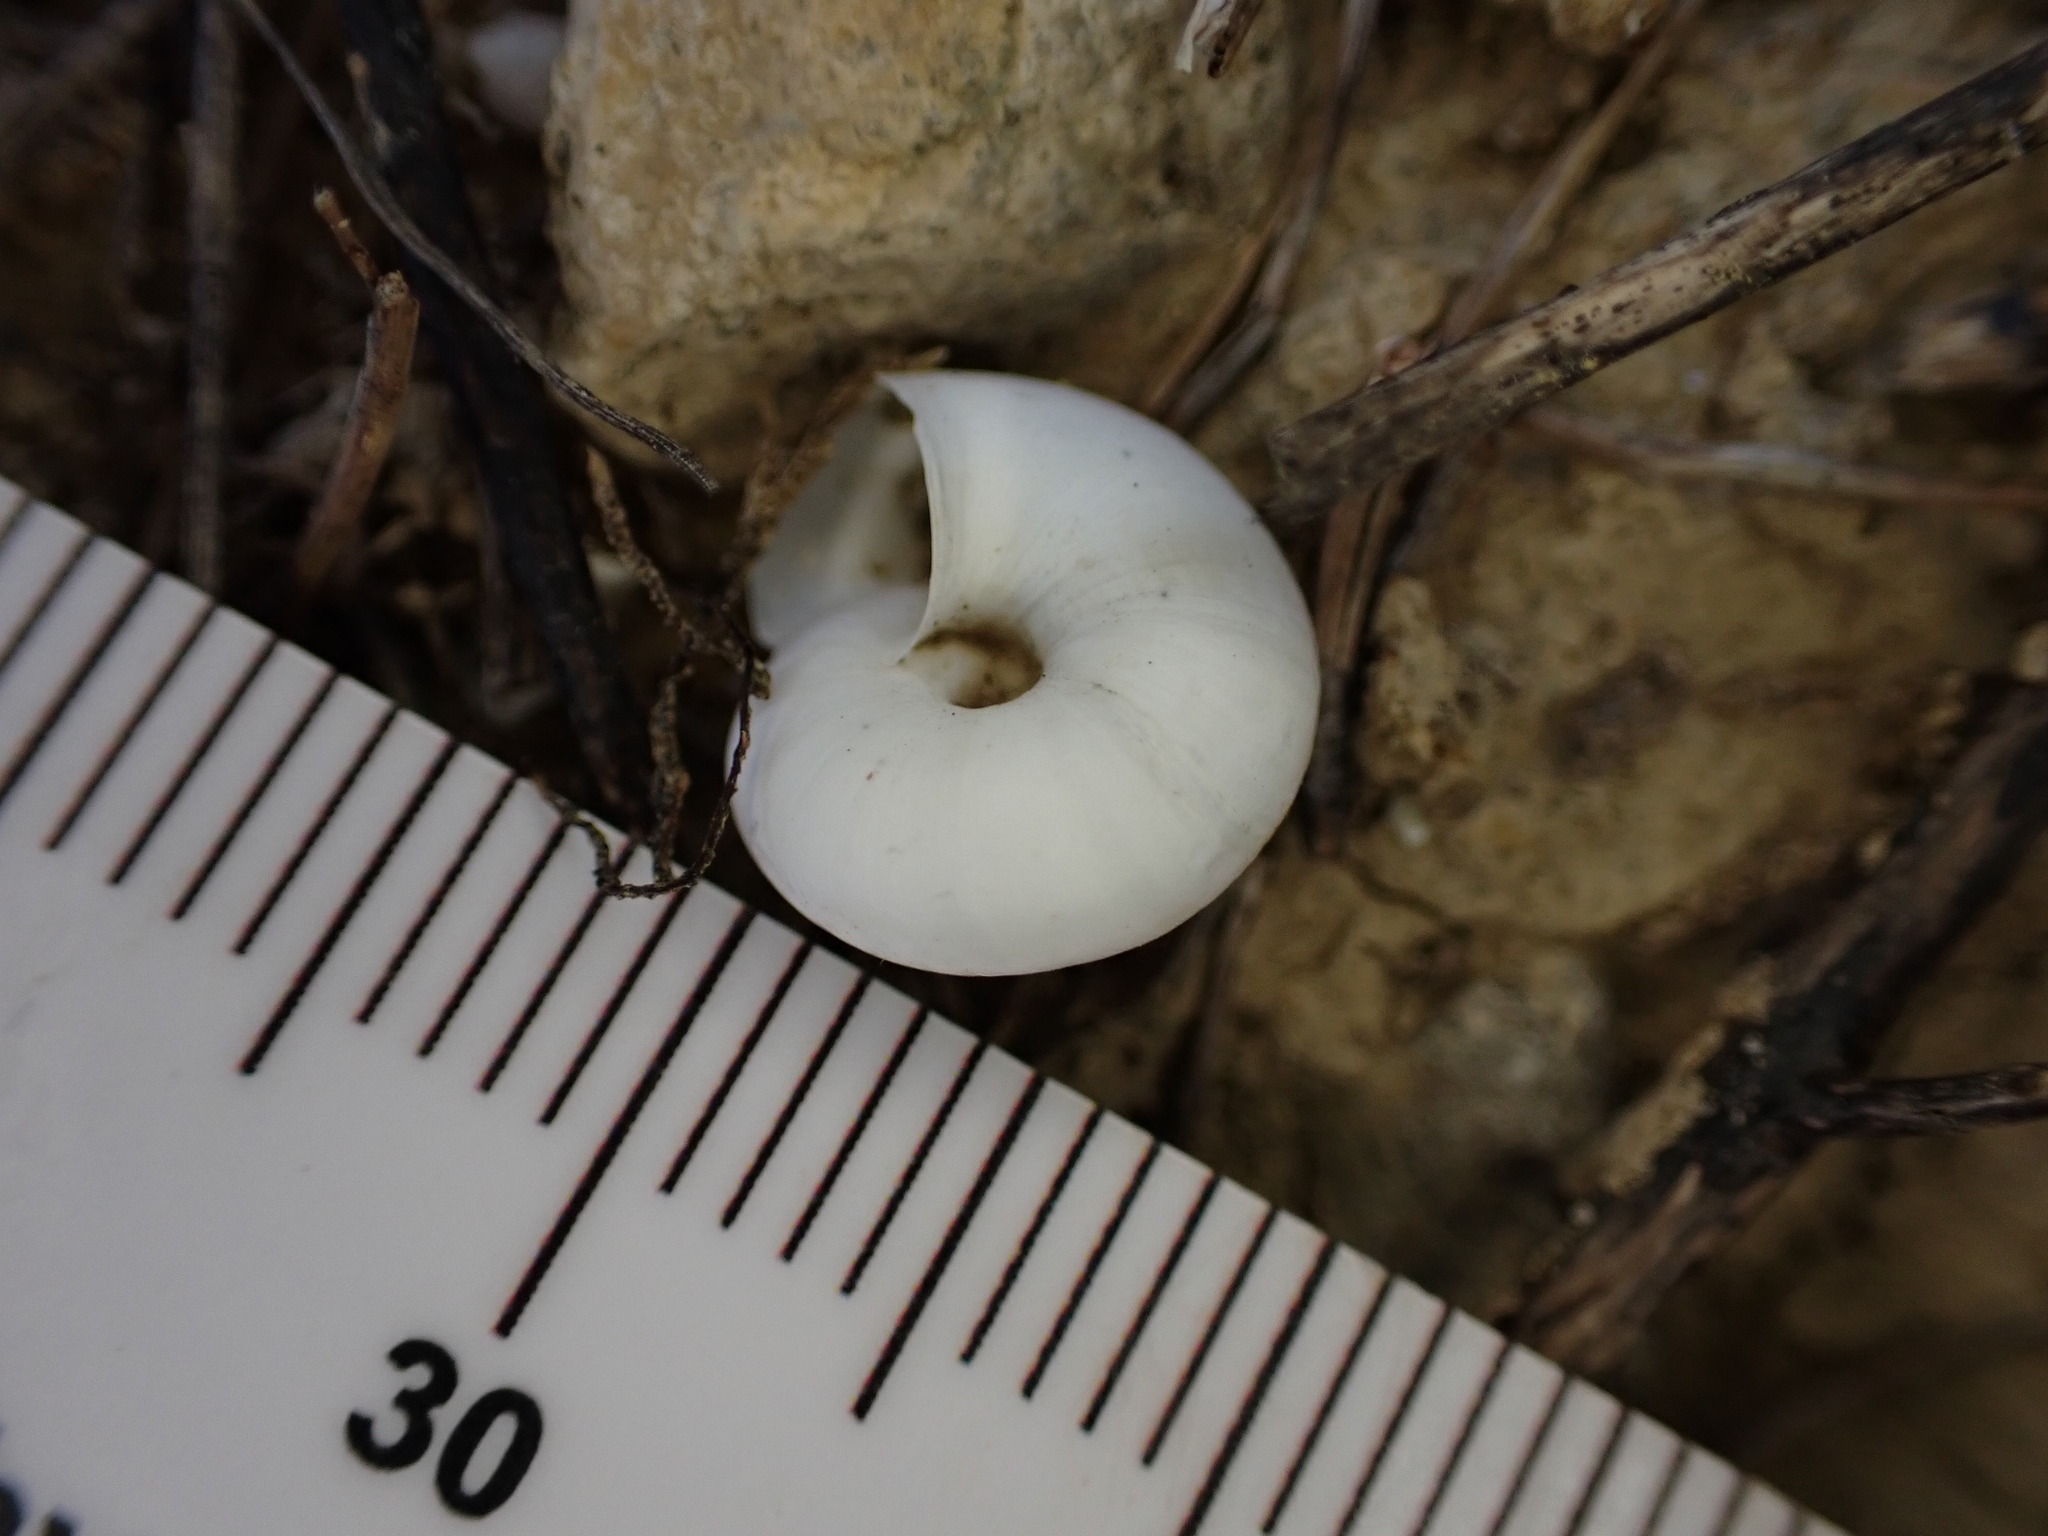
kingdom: Animalia
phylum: Mollusca
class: Gastropoda
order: Stylommatophora
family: Geomitridae
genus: Xeropicta
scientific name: Xeropicta derbentina
